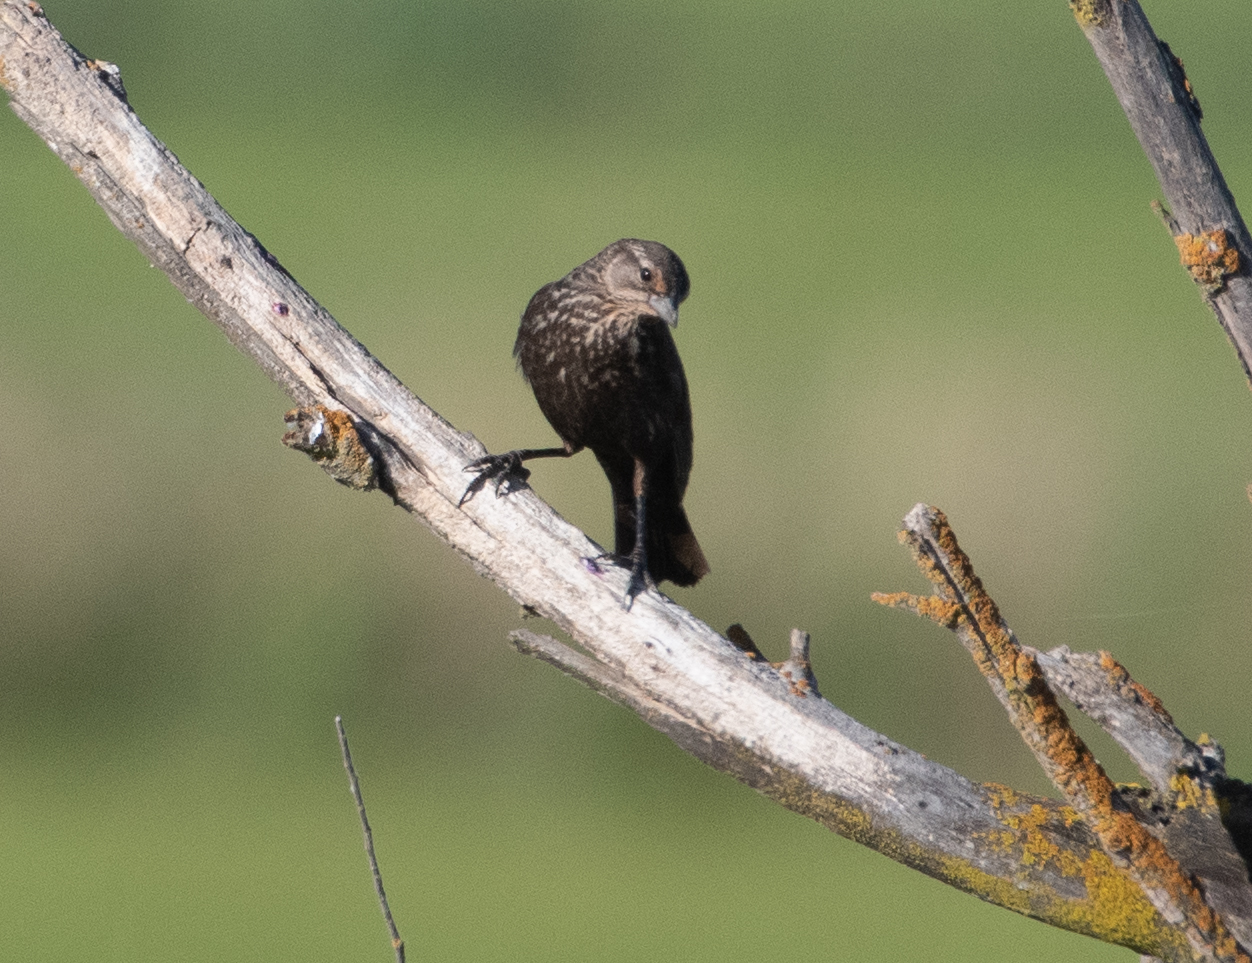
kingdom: Animalia
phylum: Chordata
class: Aves
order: Passeriformes
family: Icteridae
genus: Agelaius
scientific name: Agelaius phoeniceus
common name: Red-winged blackbird
